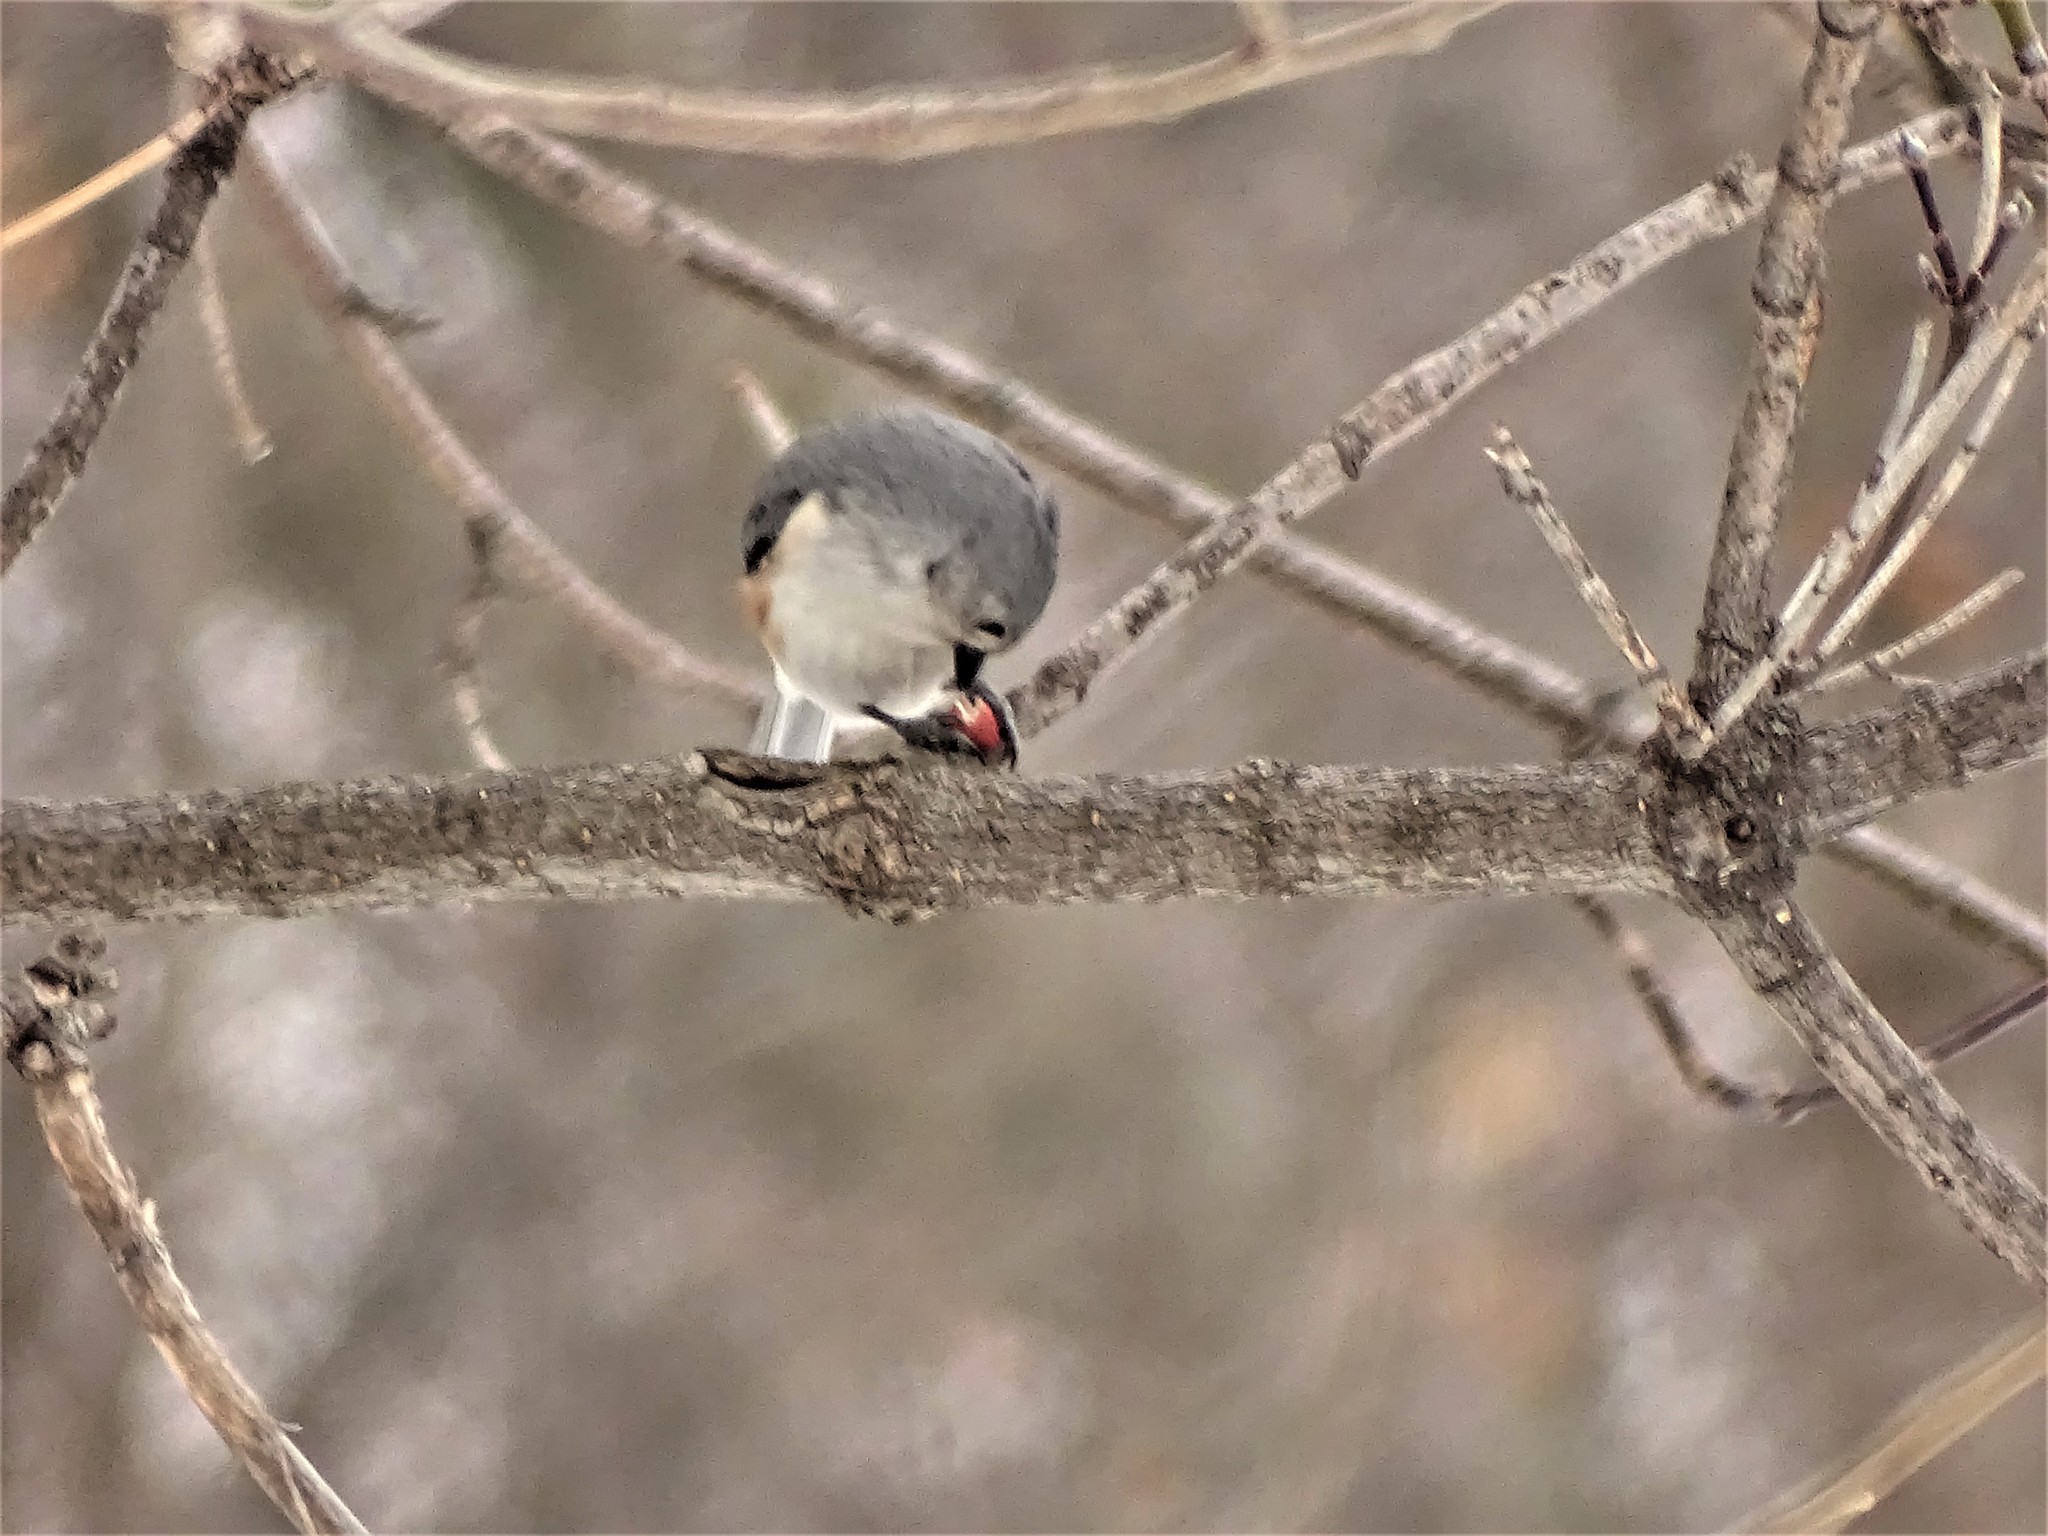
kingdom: Animalia
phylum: Chordata
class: Aves
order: Passeriformes
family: Paridae
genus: Baeolophus
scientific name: Baeolophus bicolor
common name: Tufted titmouse
